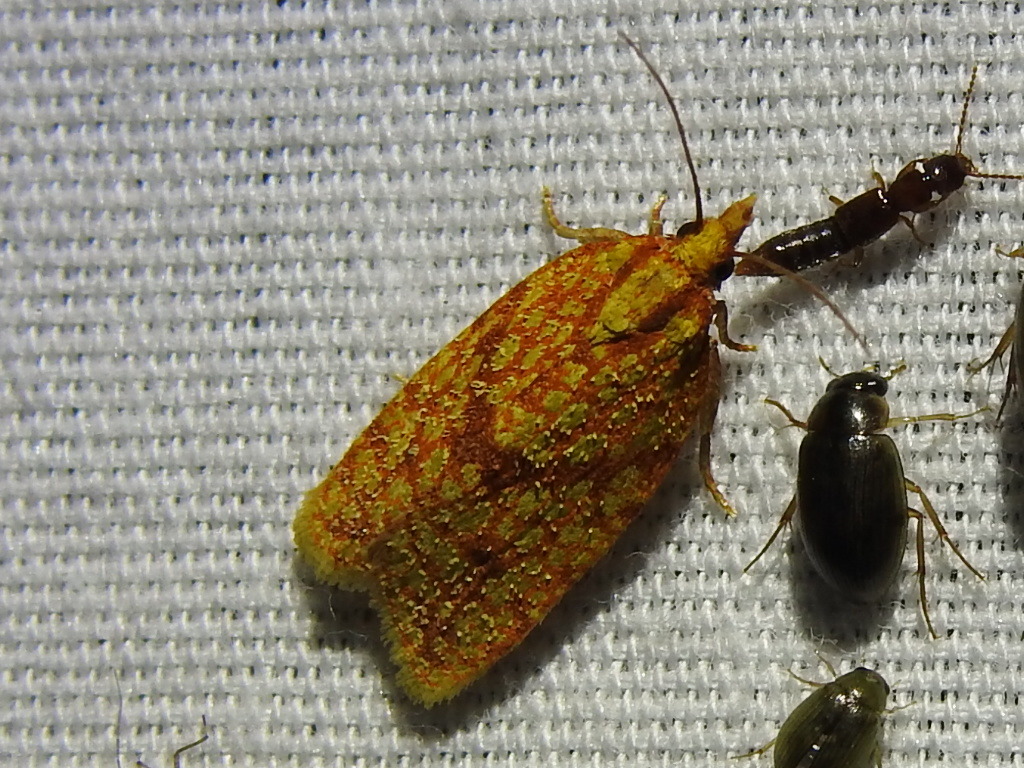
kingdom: Animalia
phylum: Arthropoda
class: Insecta
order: Lepidoptera
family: Tortricidae
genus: Sparganothis
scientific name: Sparganothis sulfureana
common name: Sparganothis fruitworm moth
